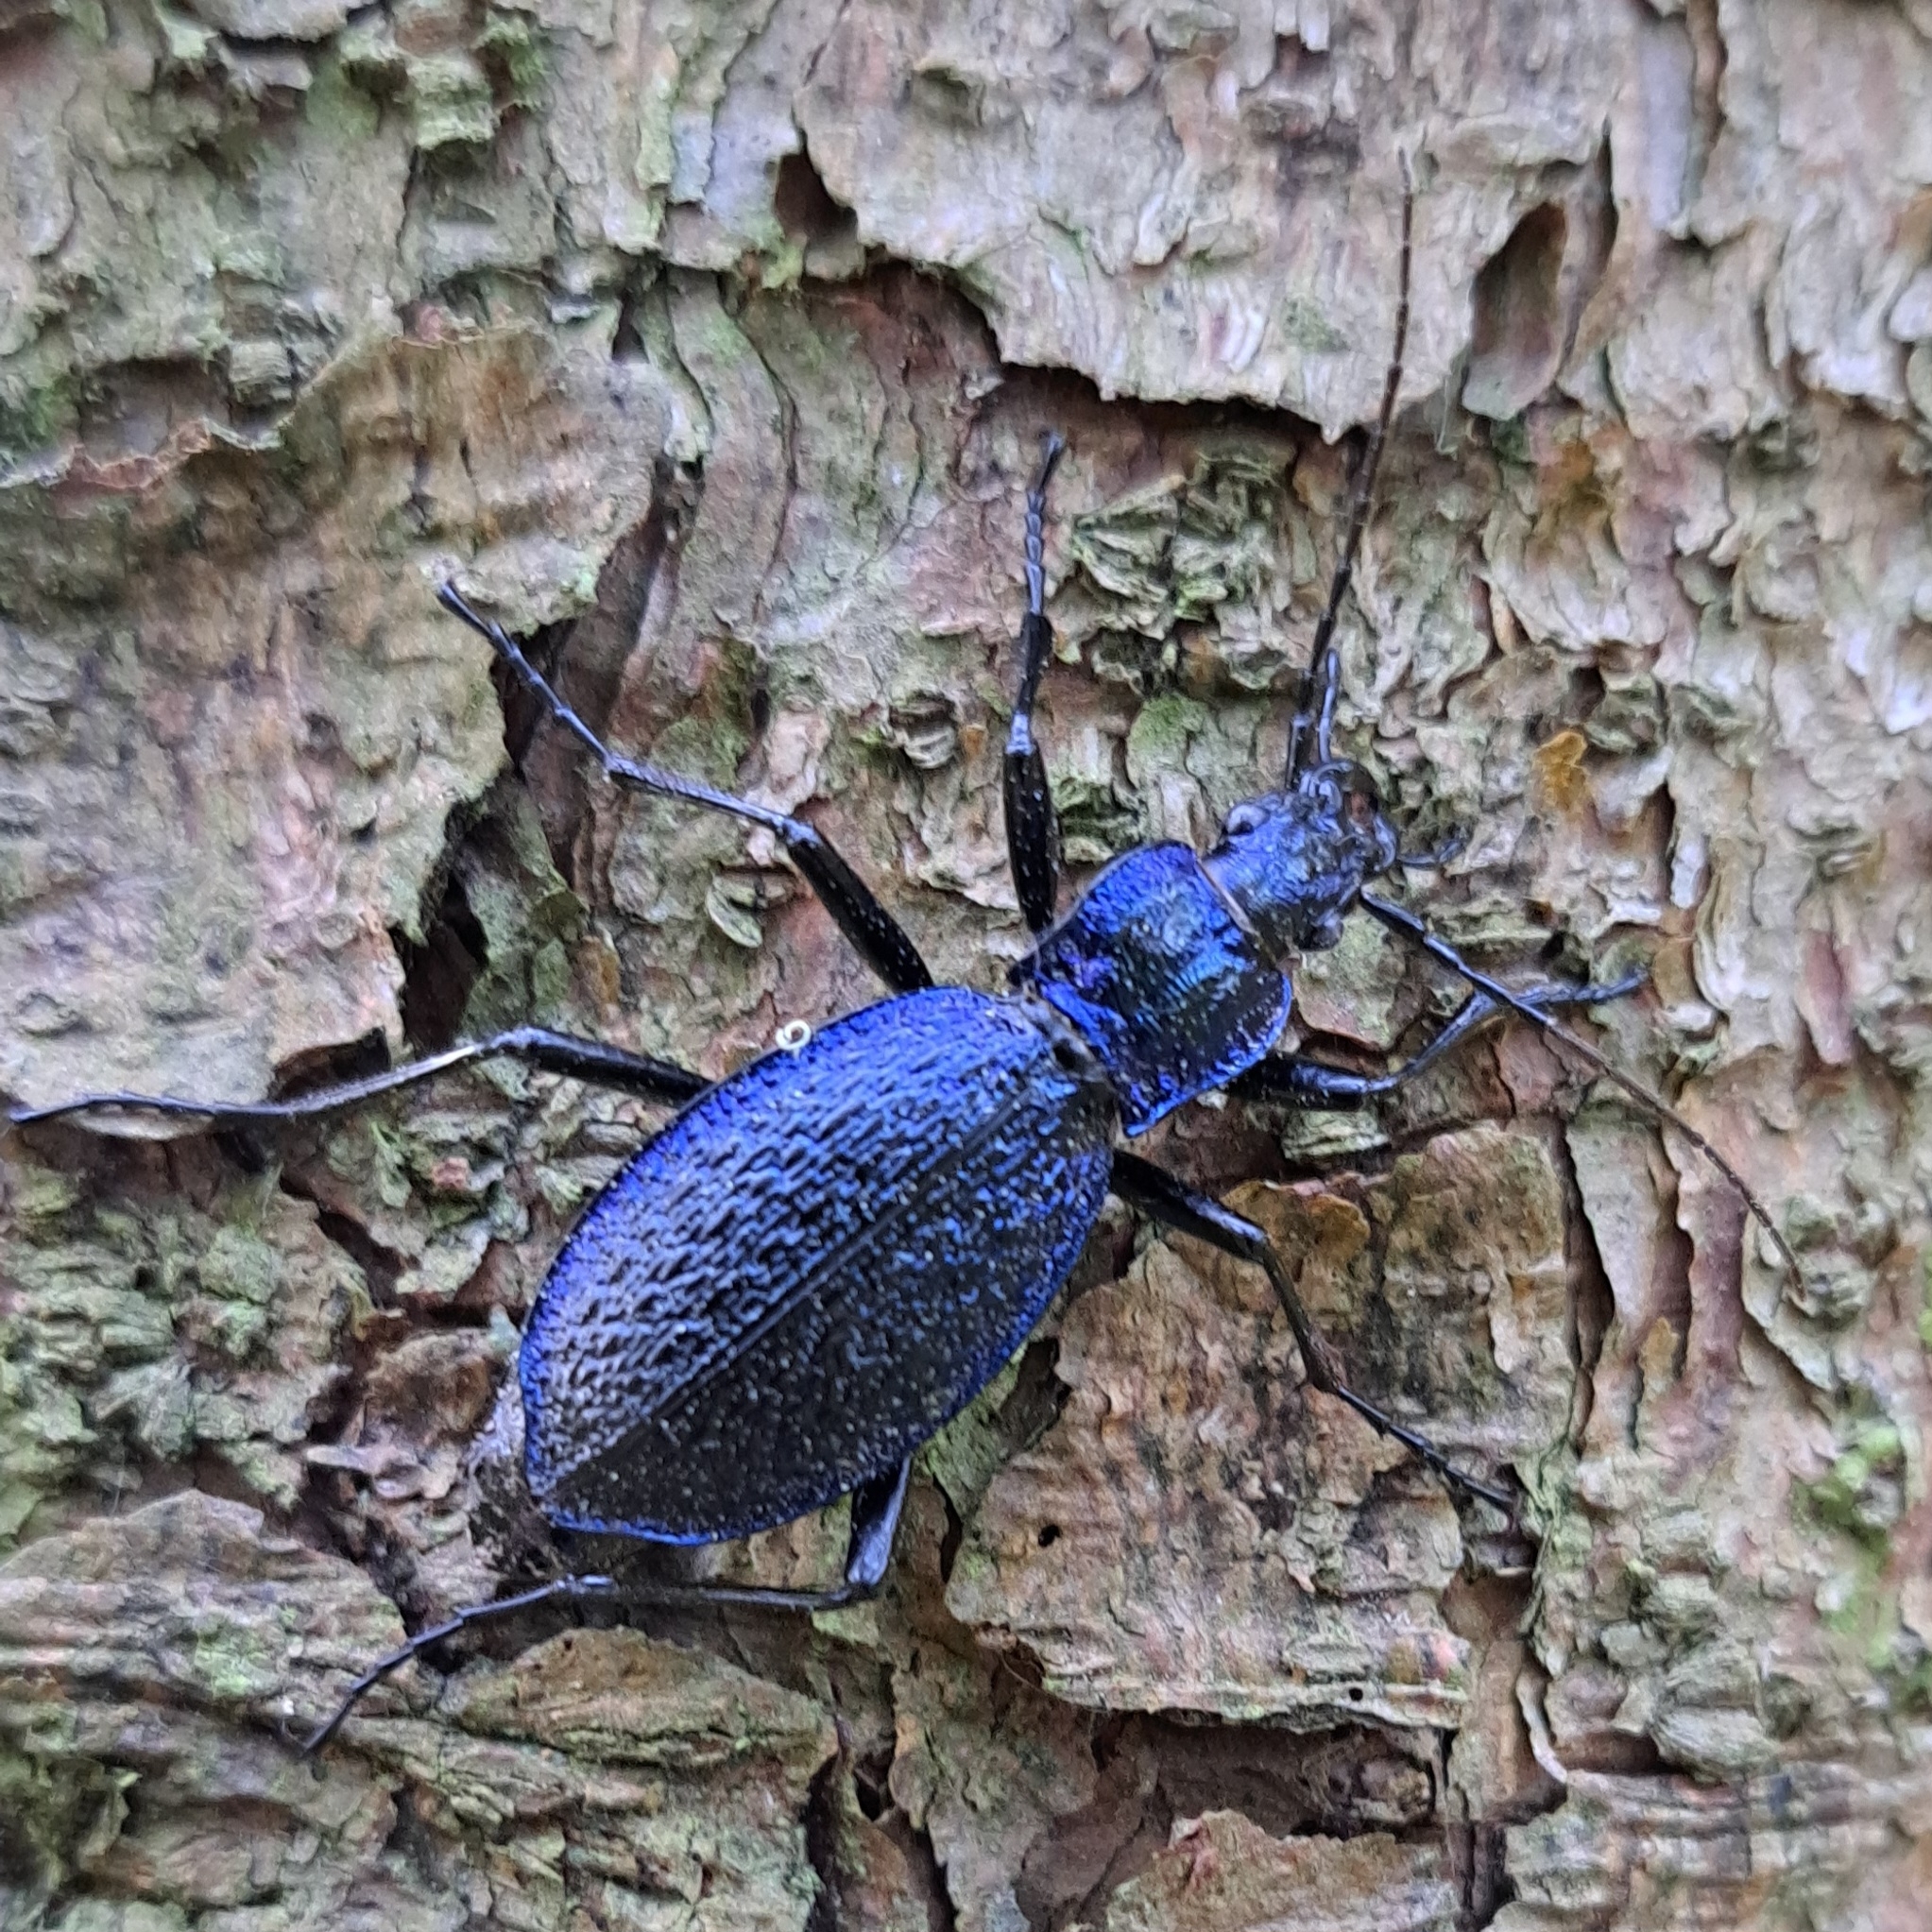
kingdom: Animalia
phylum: Arthropoda
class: Insecta
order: Coleoptera
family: Carabidae
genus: Carabus
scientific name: Carabus intricatus
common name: Blue ground beetle
